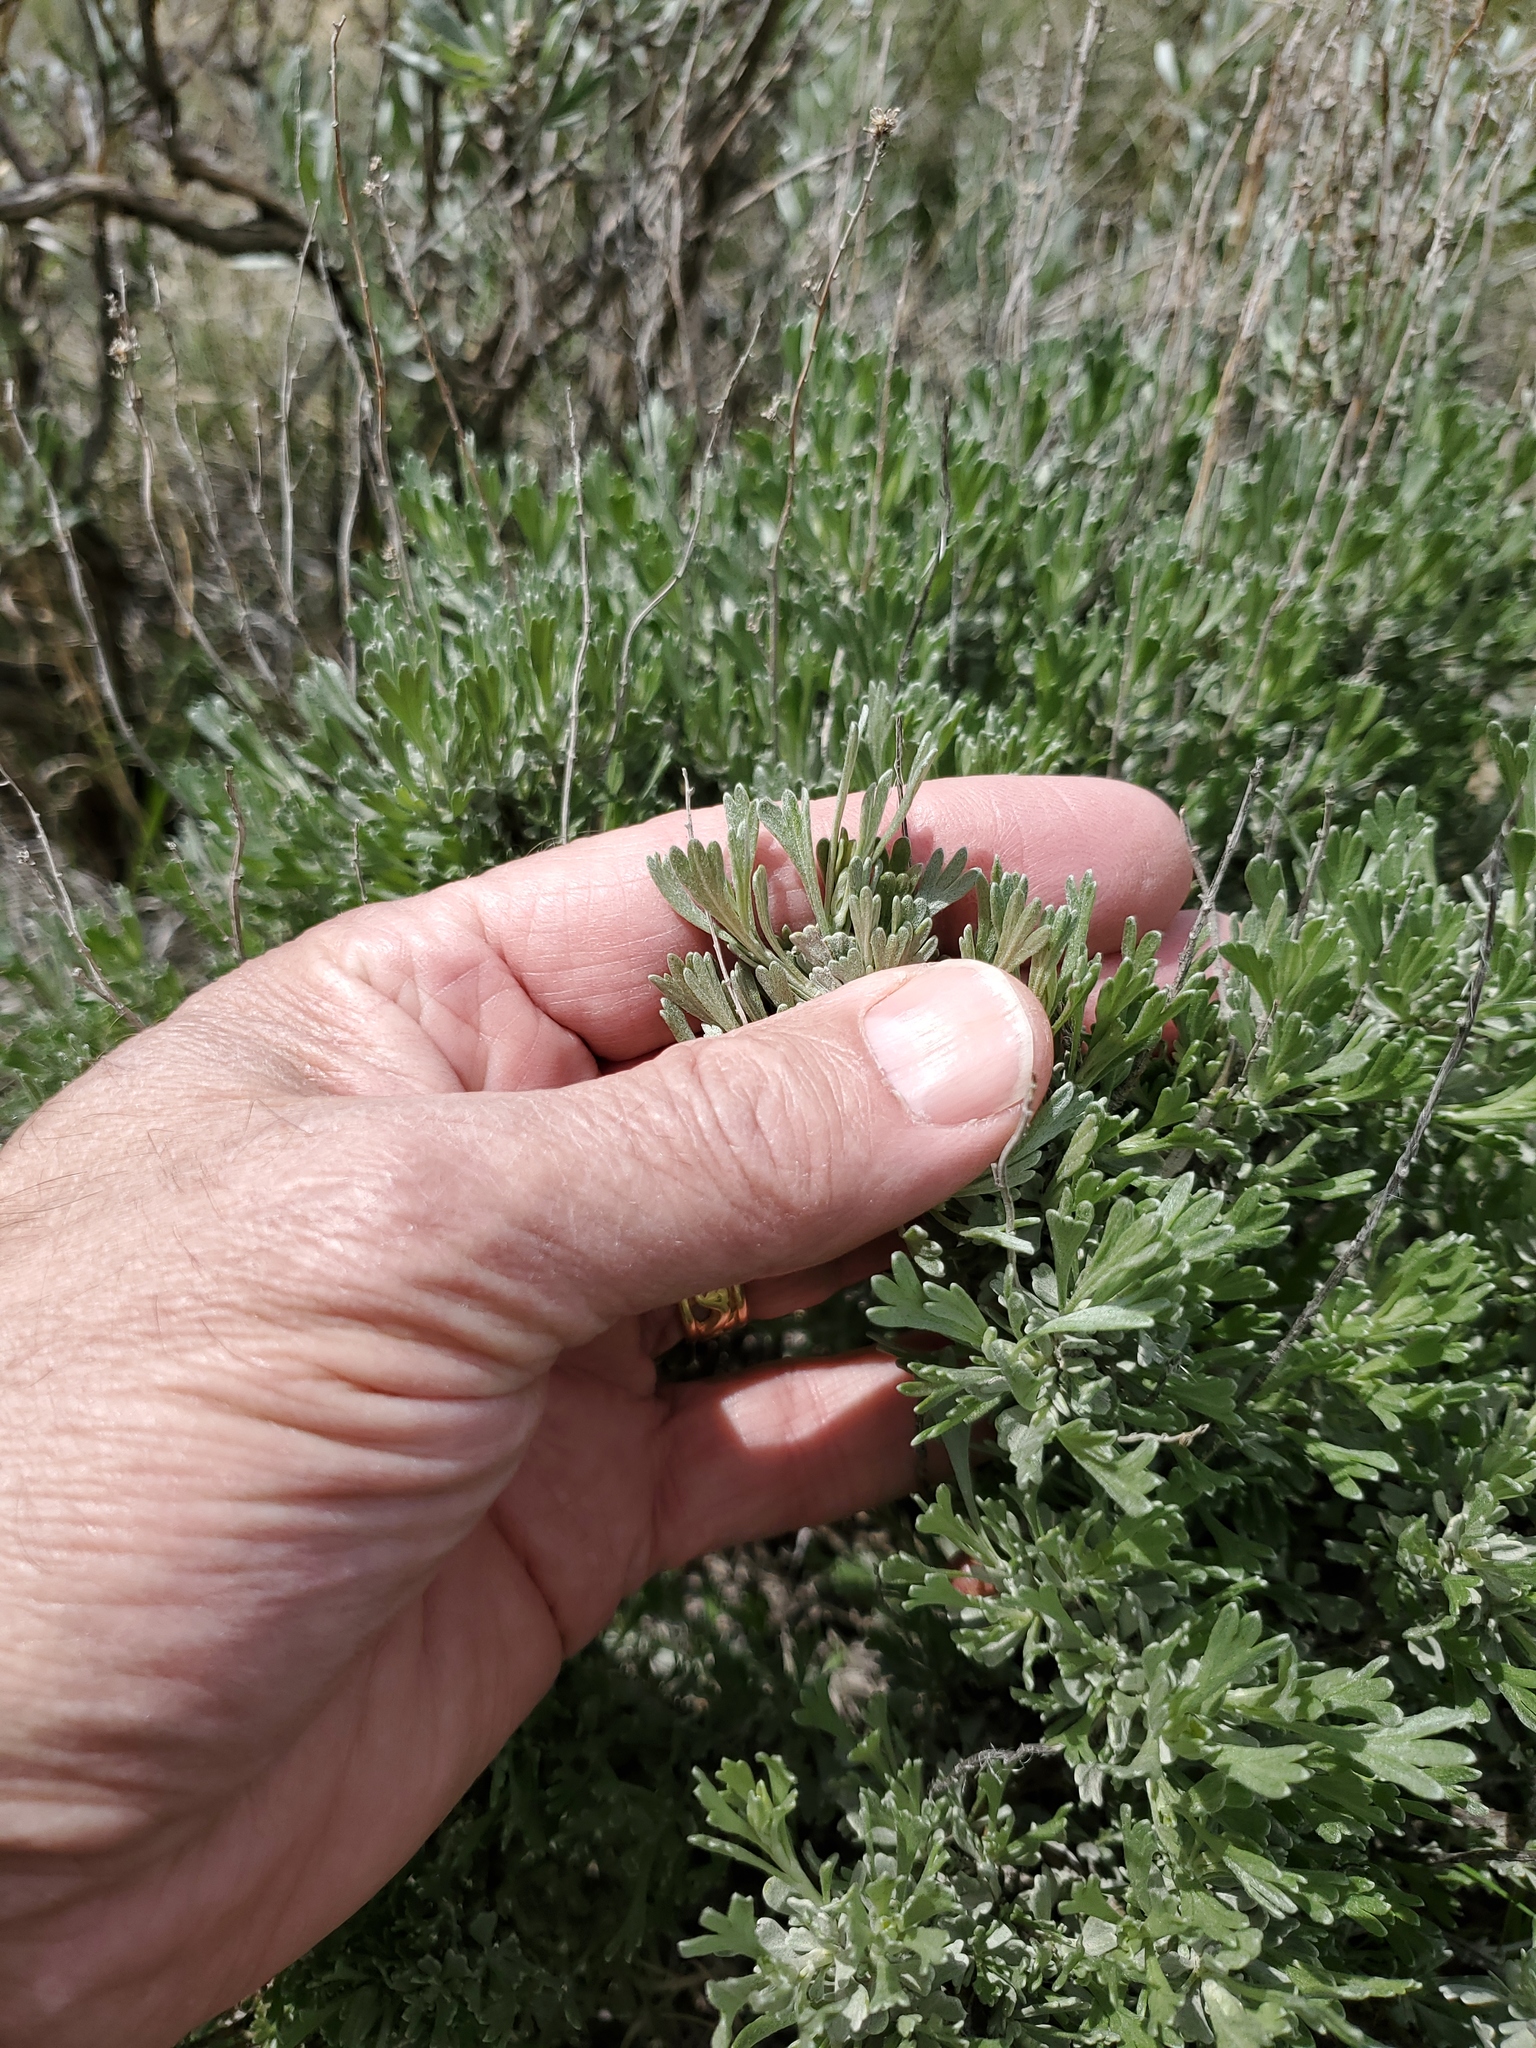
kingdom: Plantae
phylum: Tracheophyta
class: Magnoliopsida
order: Asterales
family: Asteraceae
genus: Artemisia
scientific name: Artemisia tridentata
